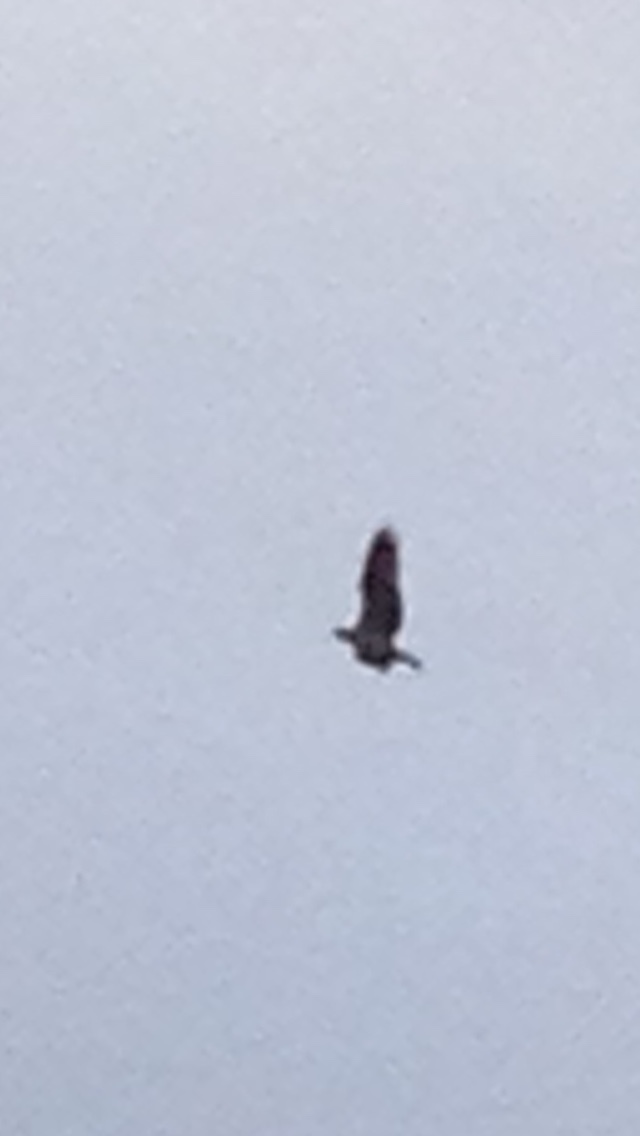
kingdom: Animalia
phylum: Chordata
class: Aves
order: Accipitriformes
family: Pandionidae
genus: Pandion
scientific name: Pandion haliaetus
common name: Osprey
